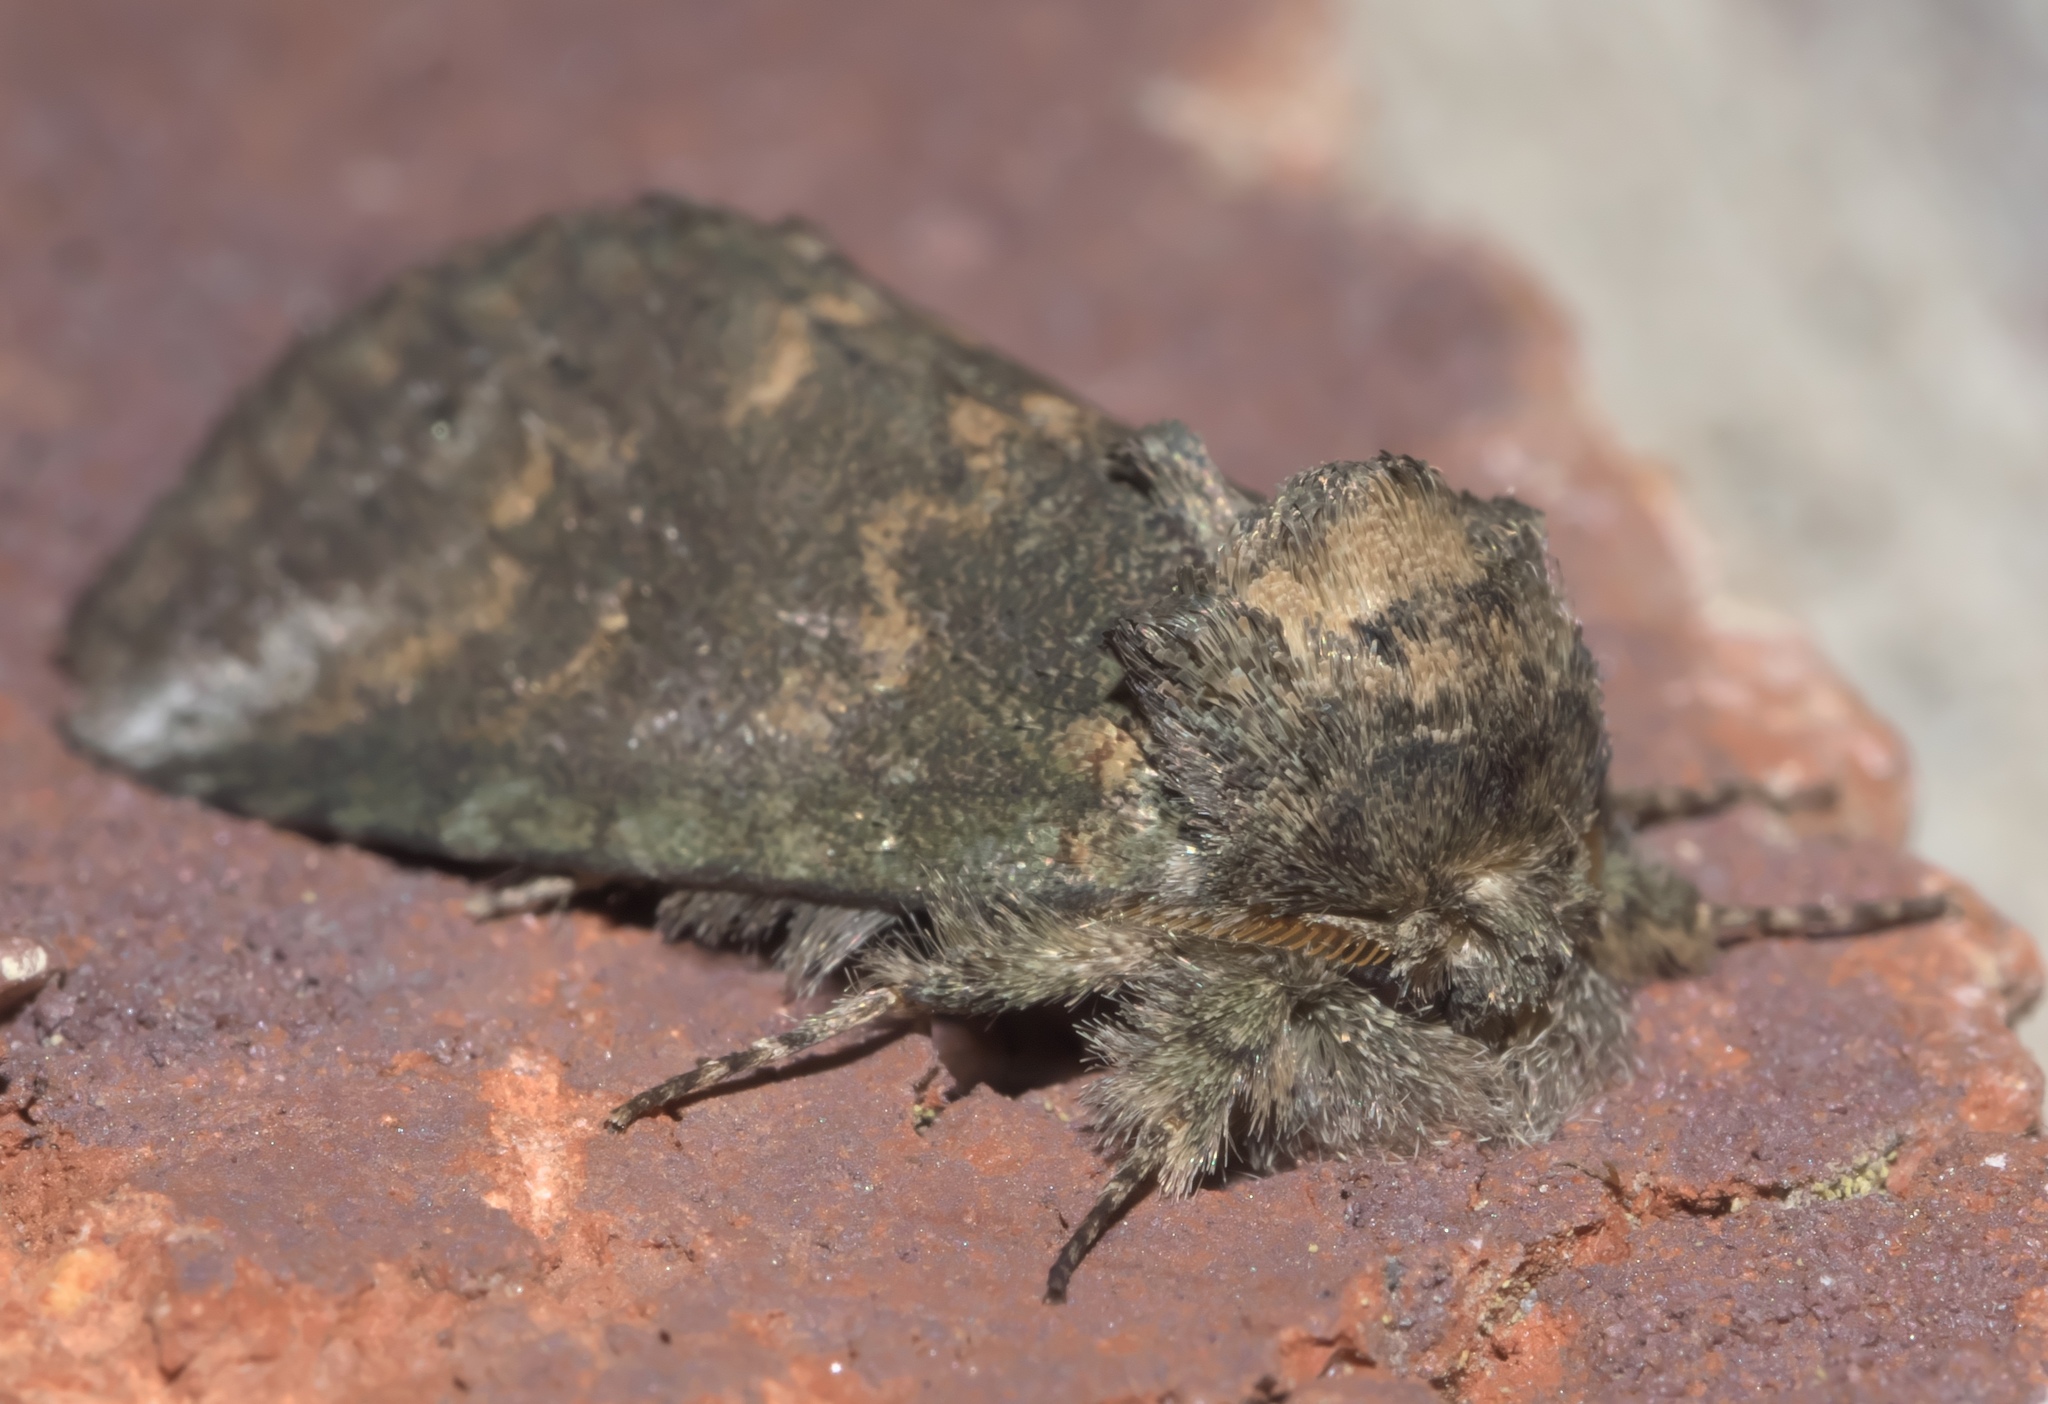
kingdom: Animalia
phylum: Arthropoda
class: Insecta
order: Lepidoptera
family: Notodontidae
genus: Rifargia
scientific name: Rifargia
